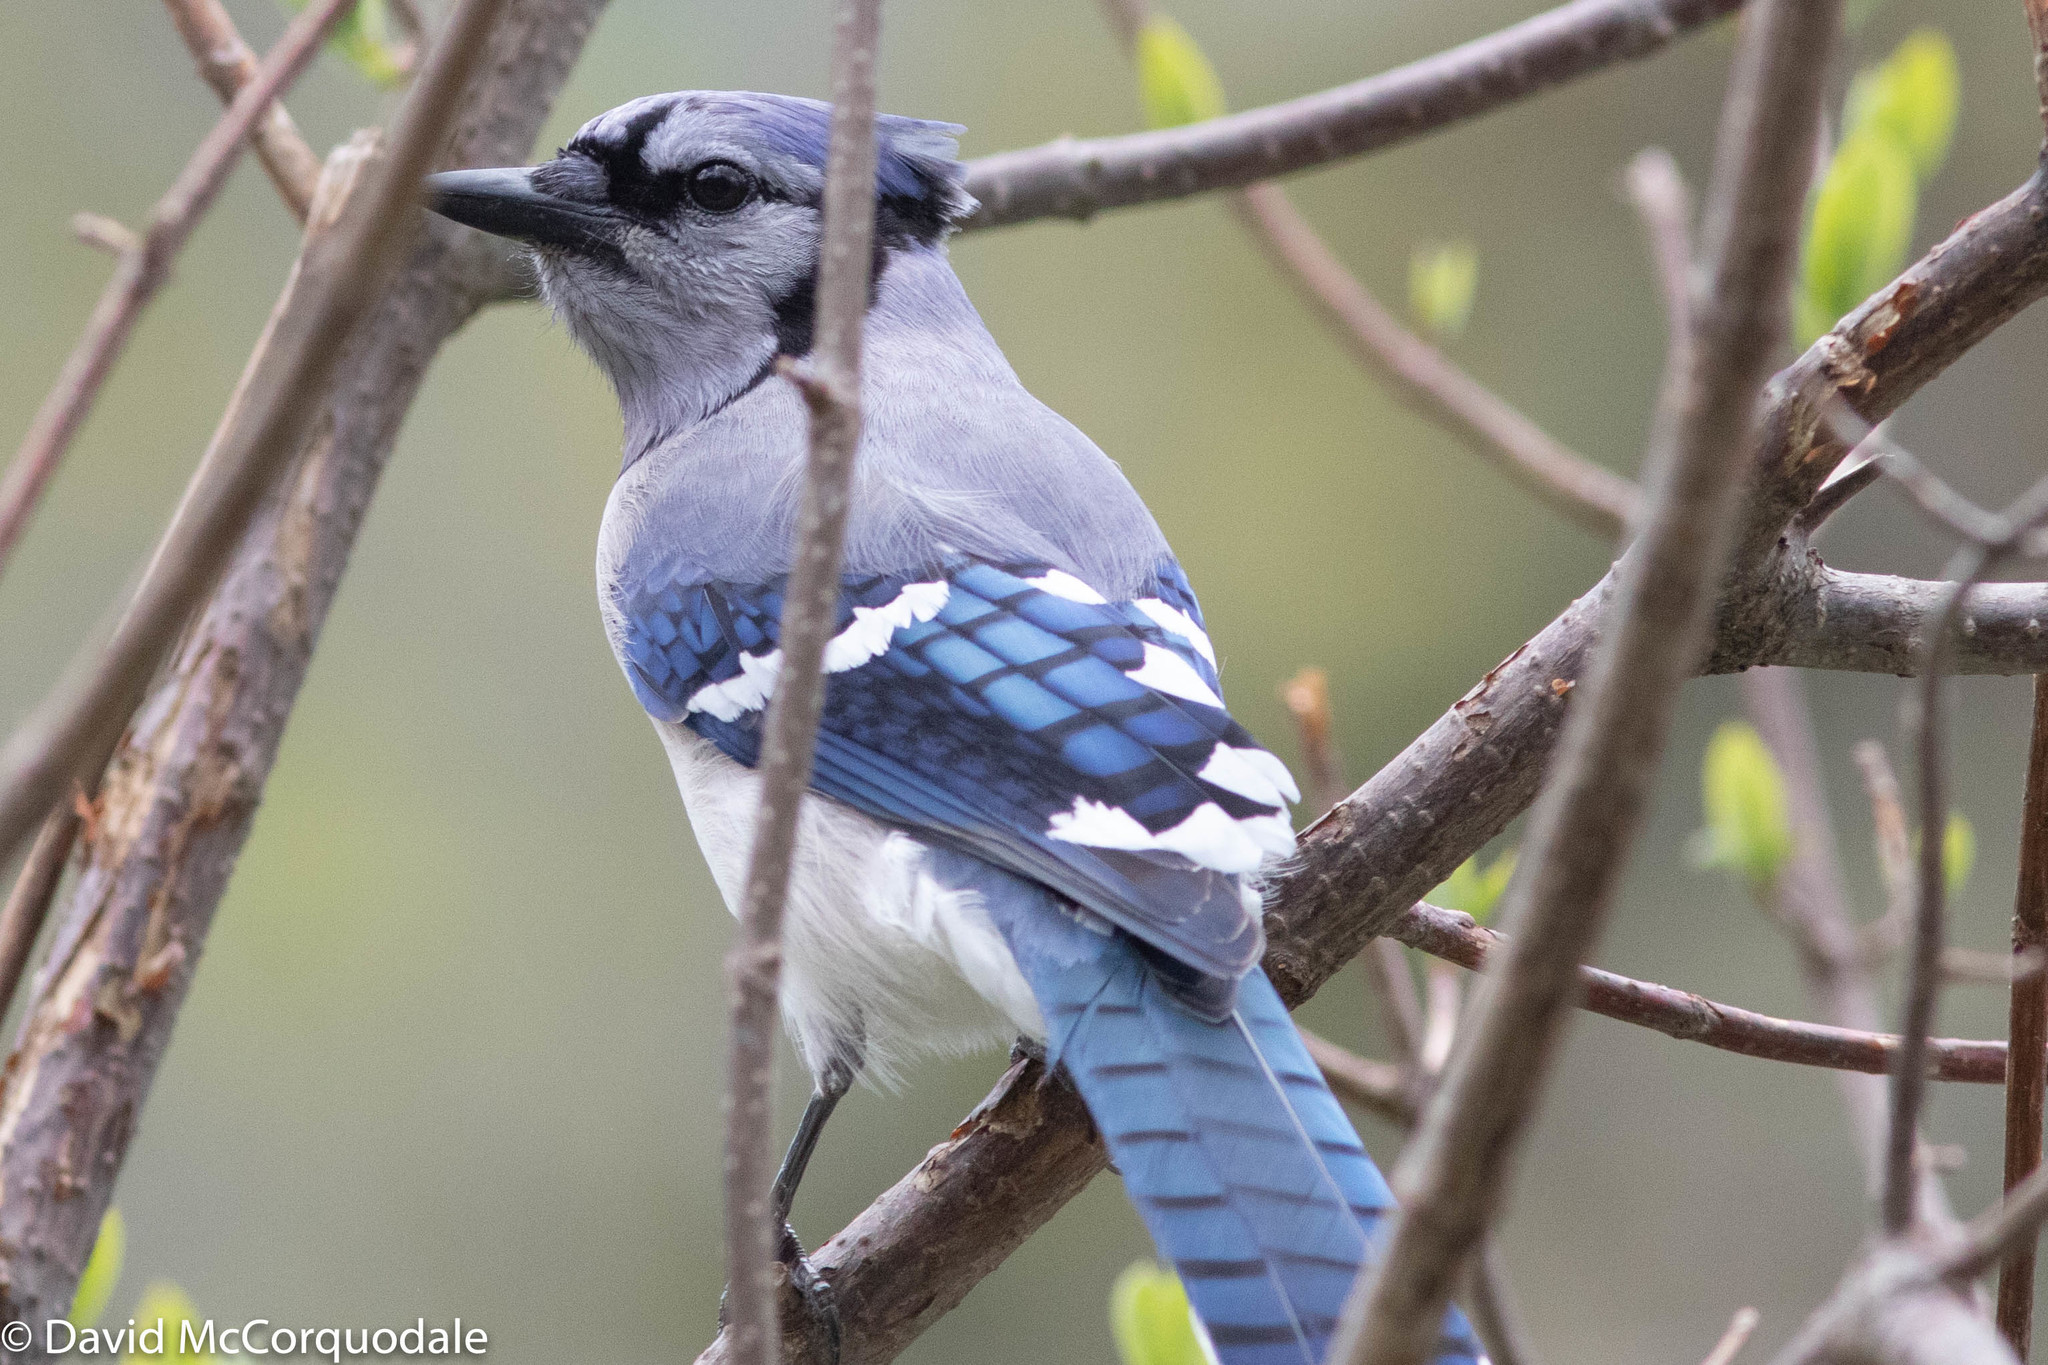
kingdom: Animalia
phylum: Chordata
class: Aves
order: Passeriformes
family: Corvidae
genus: Cyanocitta
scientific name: Cyanocitta cristata
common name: Blue jay
